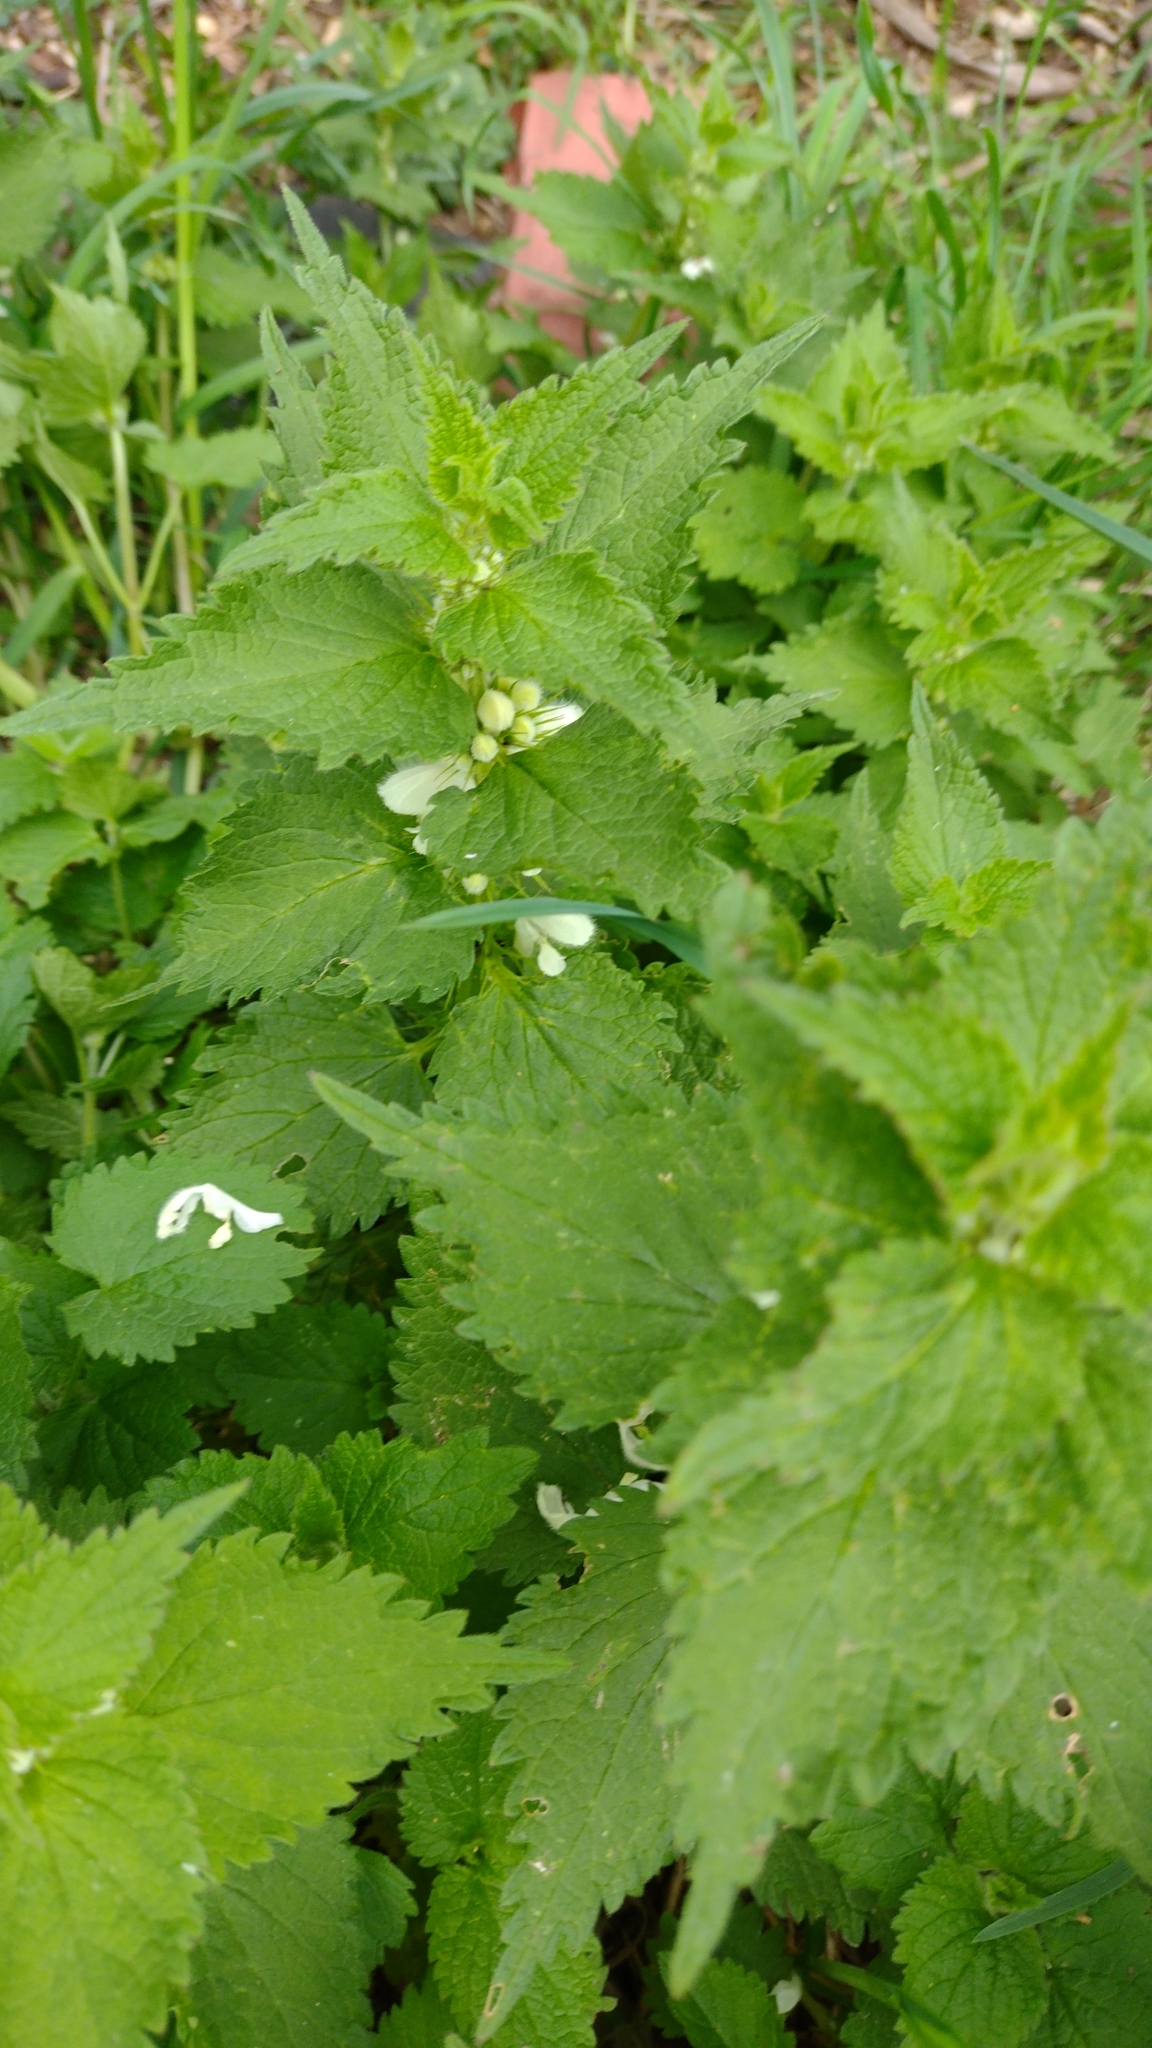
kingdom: Plantae
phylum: Tracheophyta
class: Magnoliopsida
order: Lamiales
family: Lamiaceae
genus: Lamium
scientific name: Lamium album
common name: White dead-nettle
